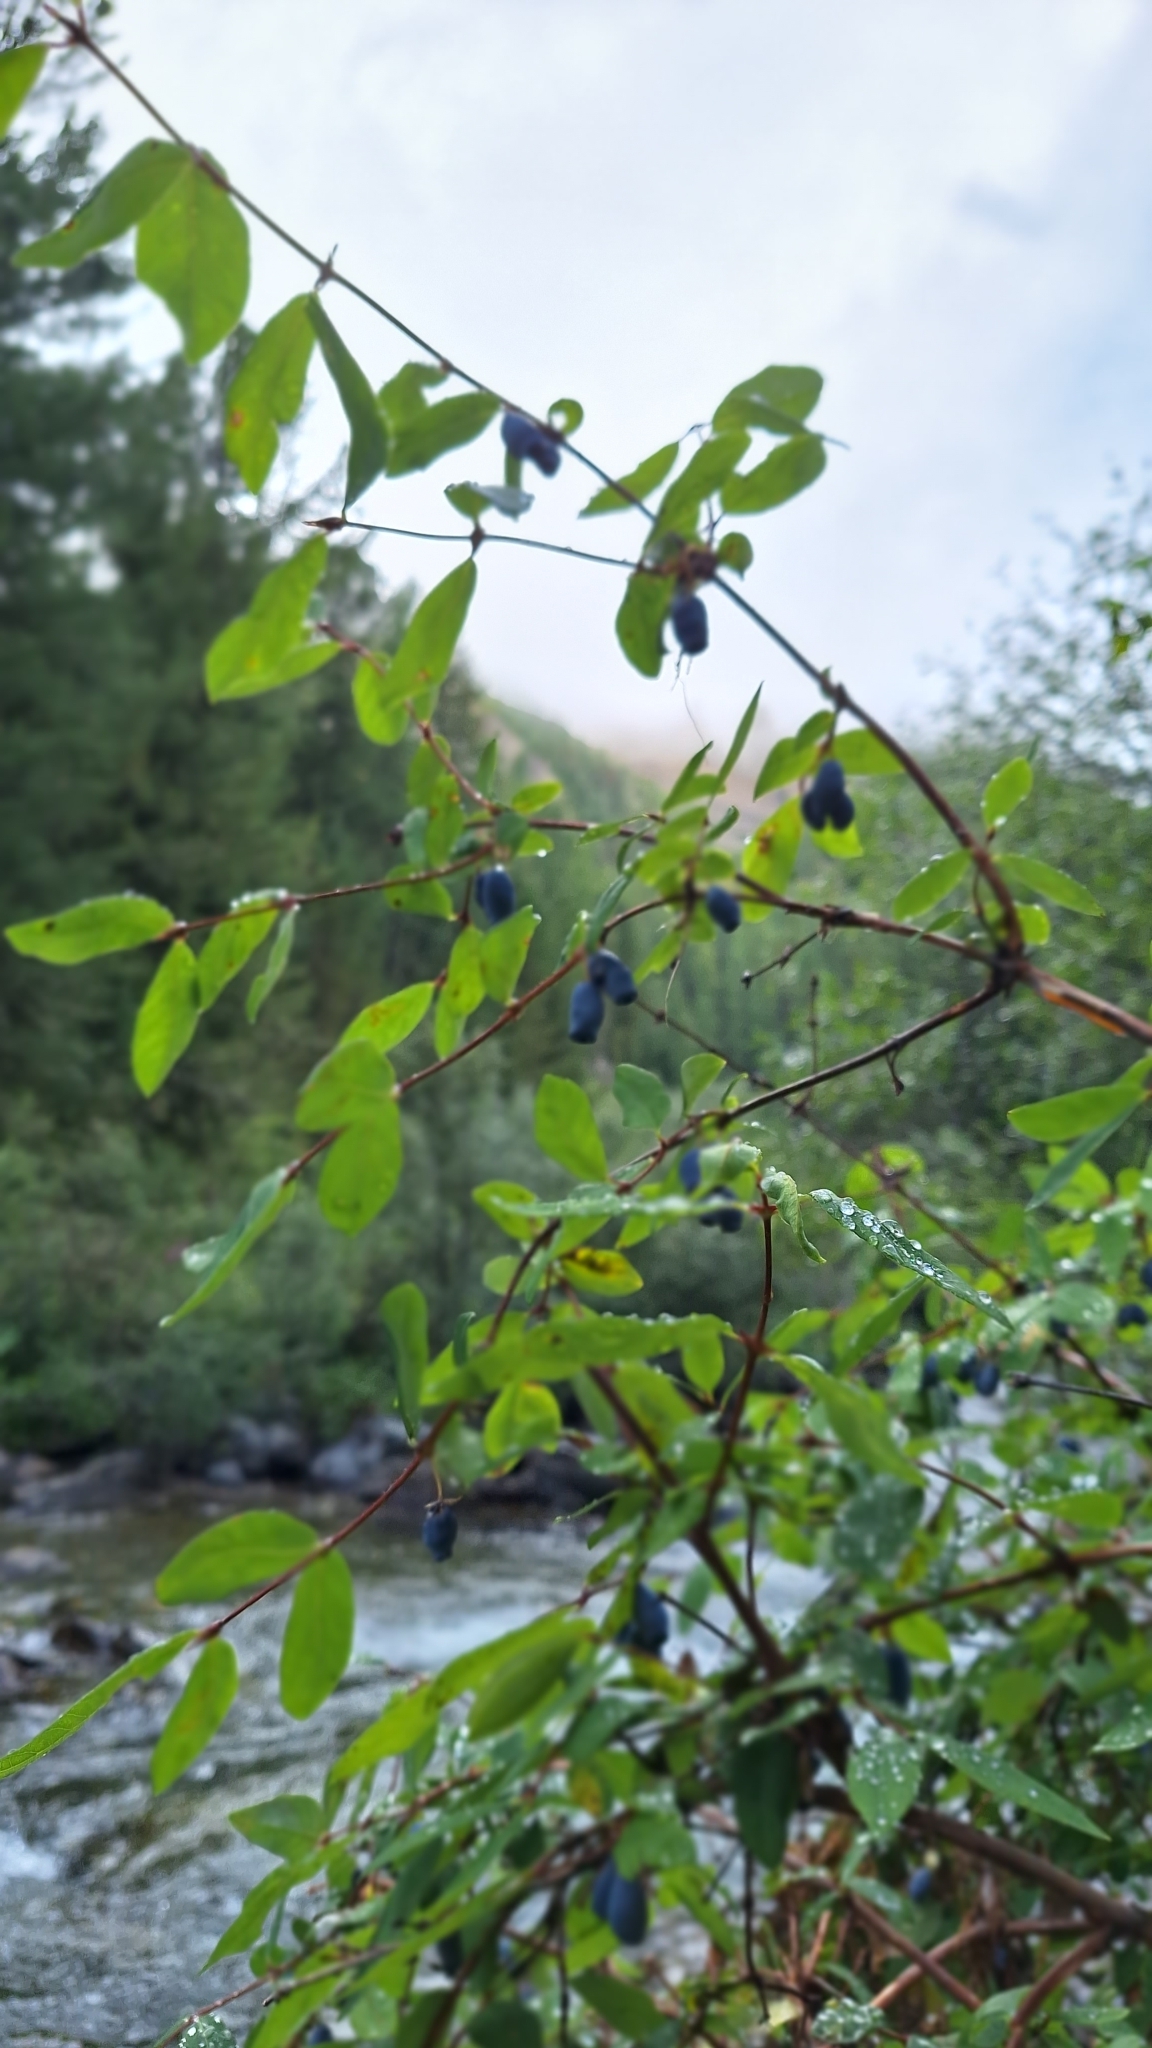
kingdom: Plantae
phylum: Tracheophyta
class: Magnoliopsida
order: Dipsacales
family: Caprifoliaceae
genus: Lonicera
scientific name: Lonicera caerulea
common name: Blue honeysuckle
